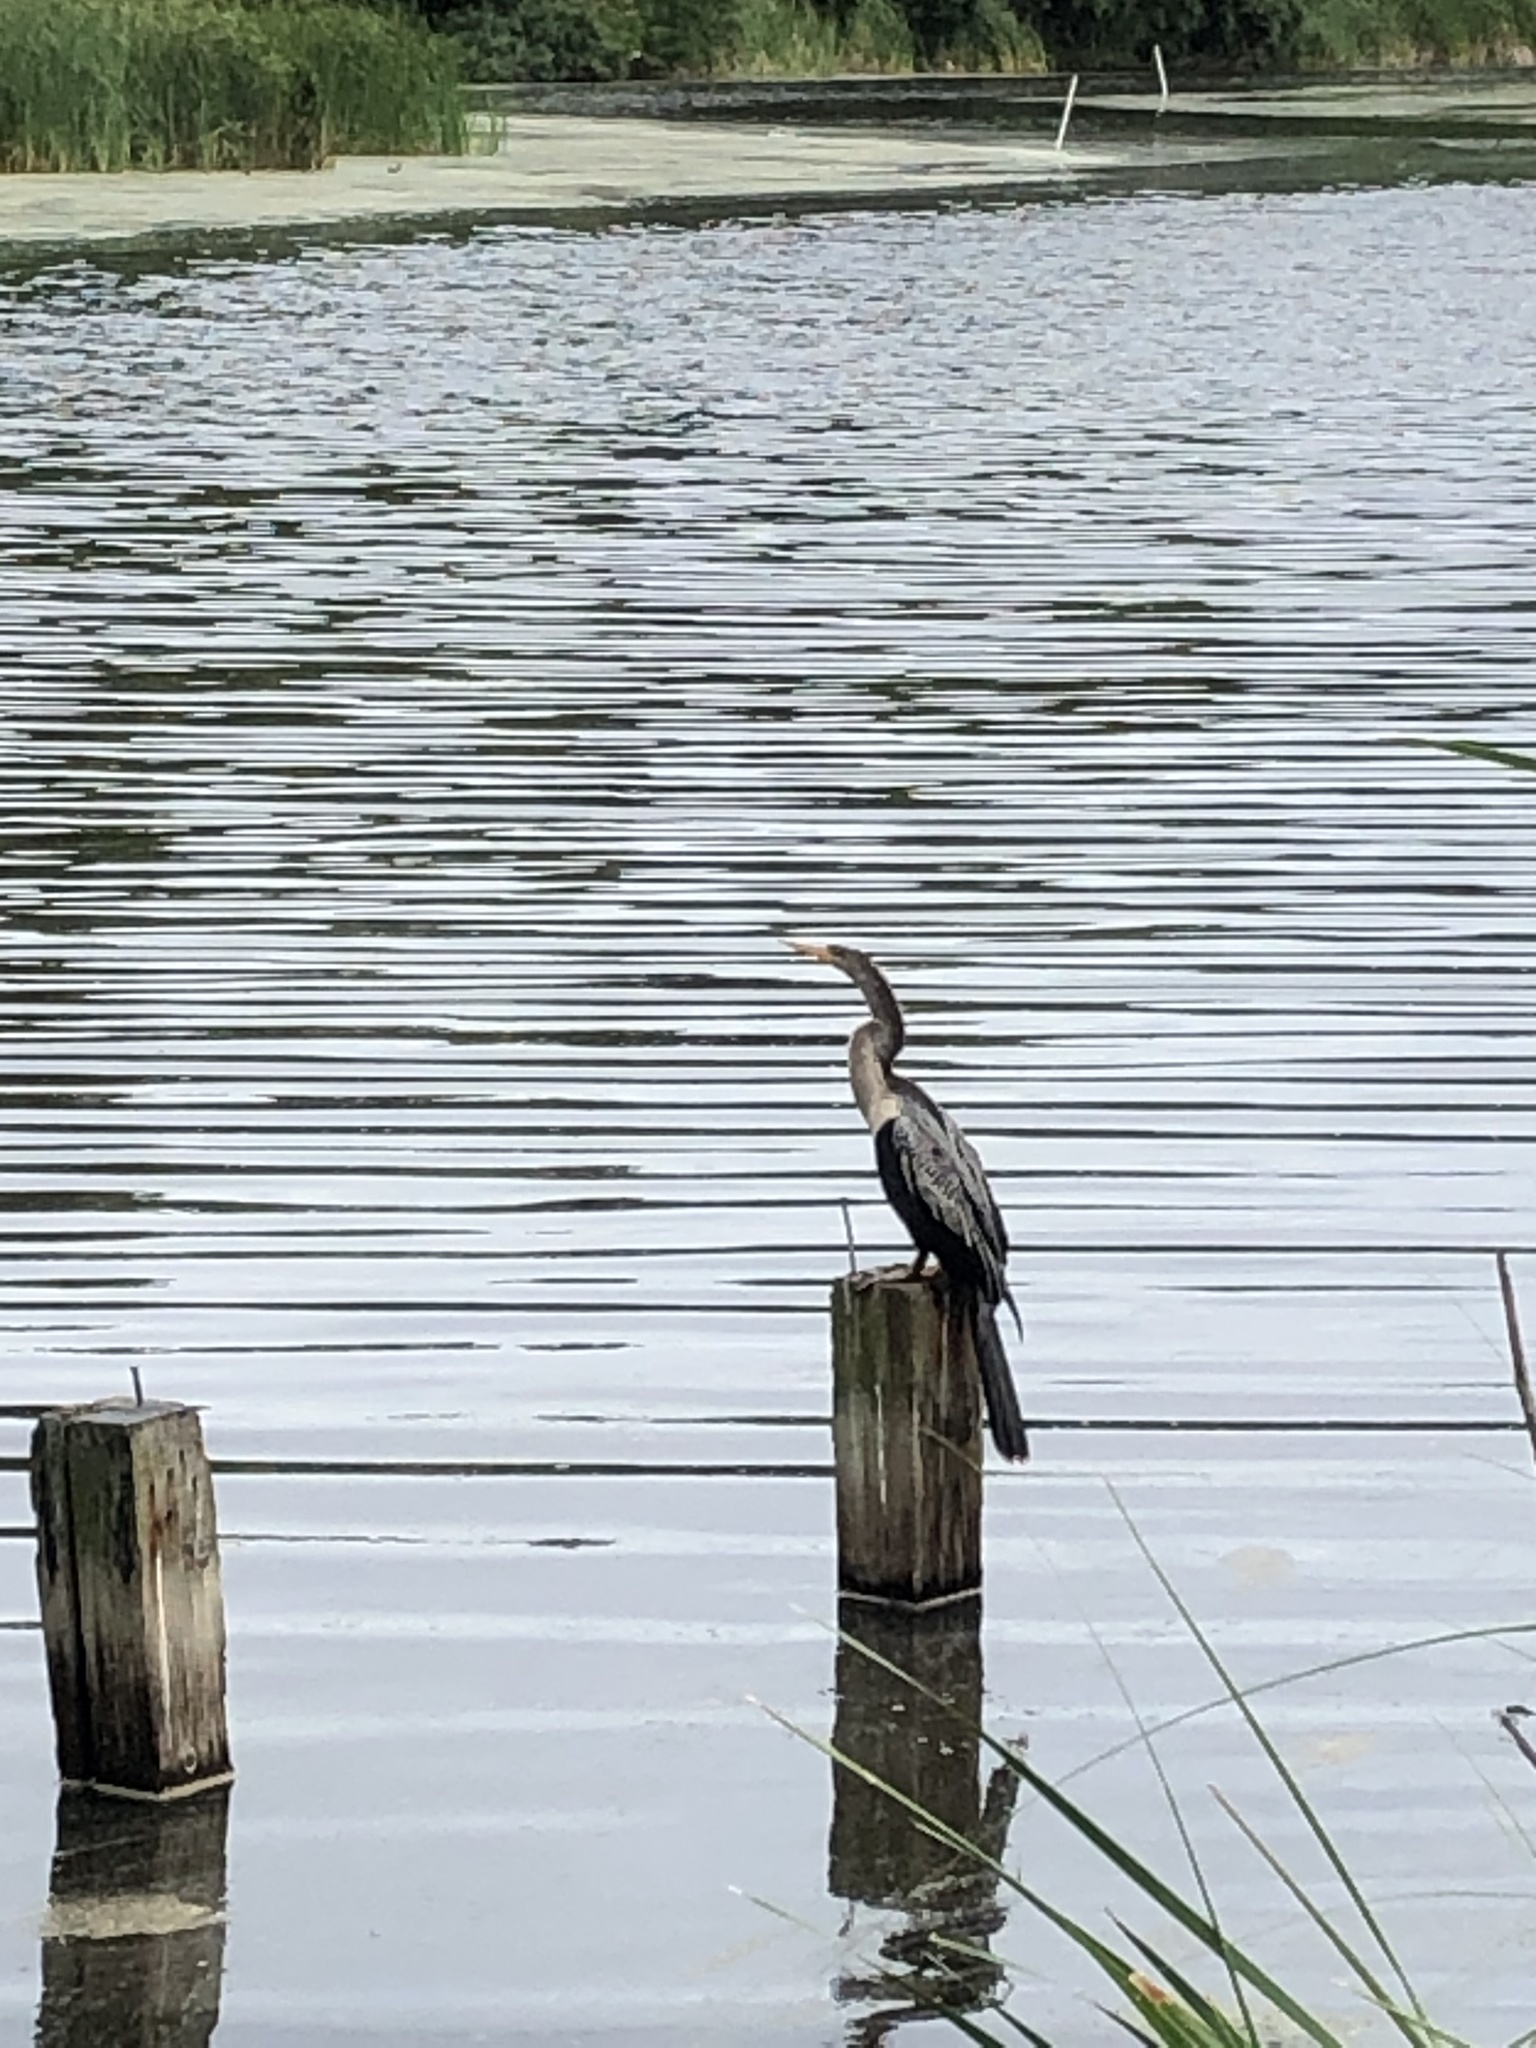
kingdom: Animalia
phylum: Chordata
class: Aves
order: Suliformes
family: Anhingidae
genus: Anhinga
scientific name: Anhinga anhinga
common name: Anhinga
